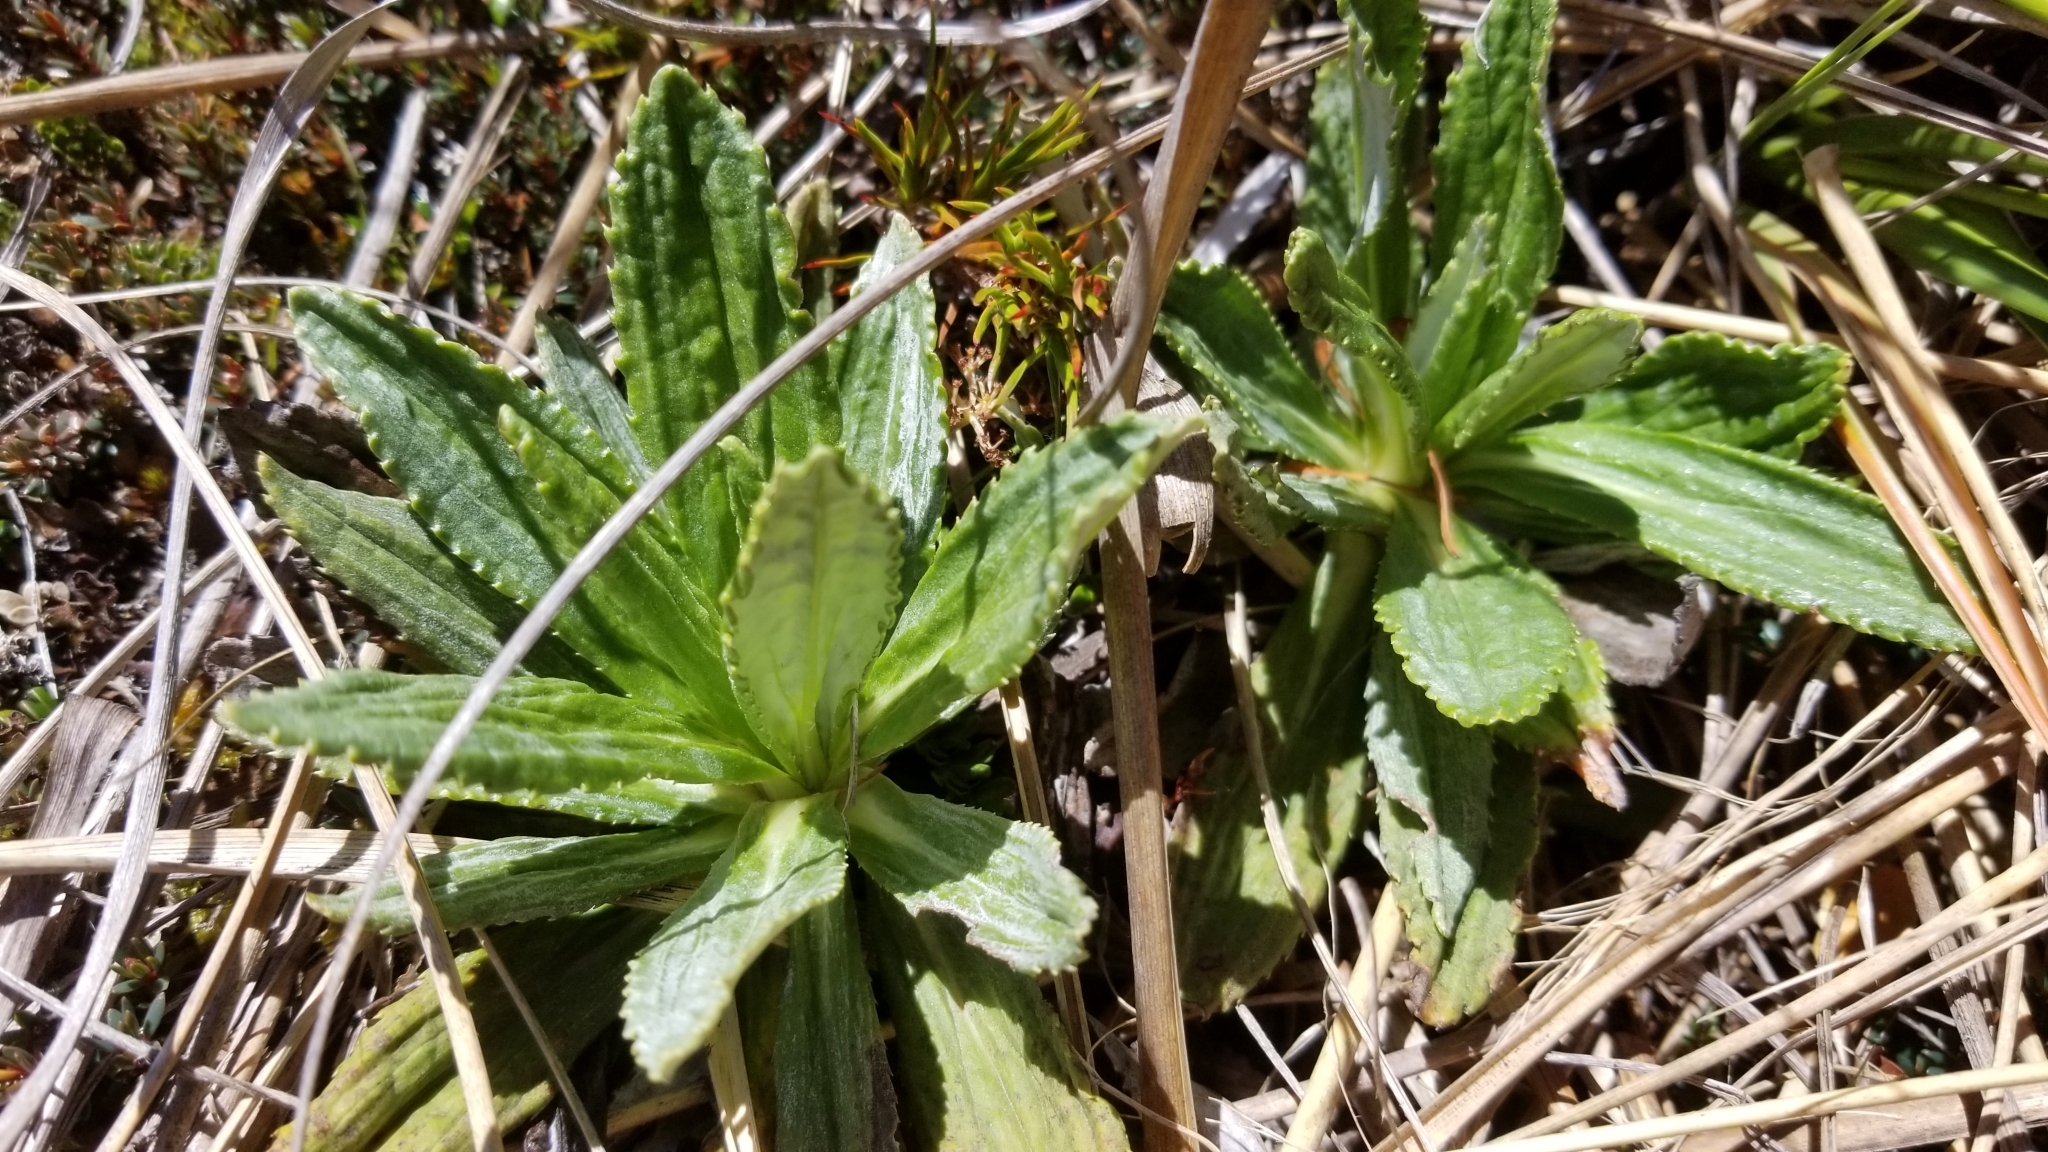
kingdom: Plantae
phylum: Tracheophyta
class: Magnoliopsida
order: Asterales
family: Asteraceae
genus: Celmisia
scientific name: Celmisia densiflora
